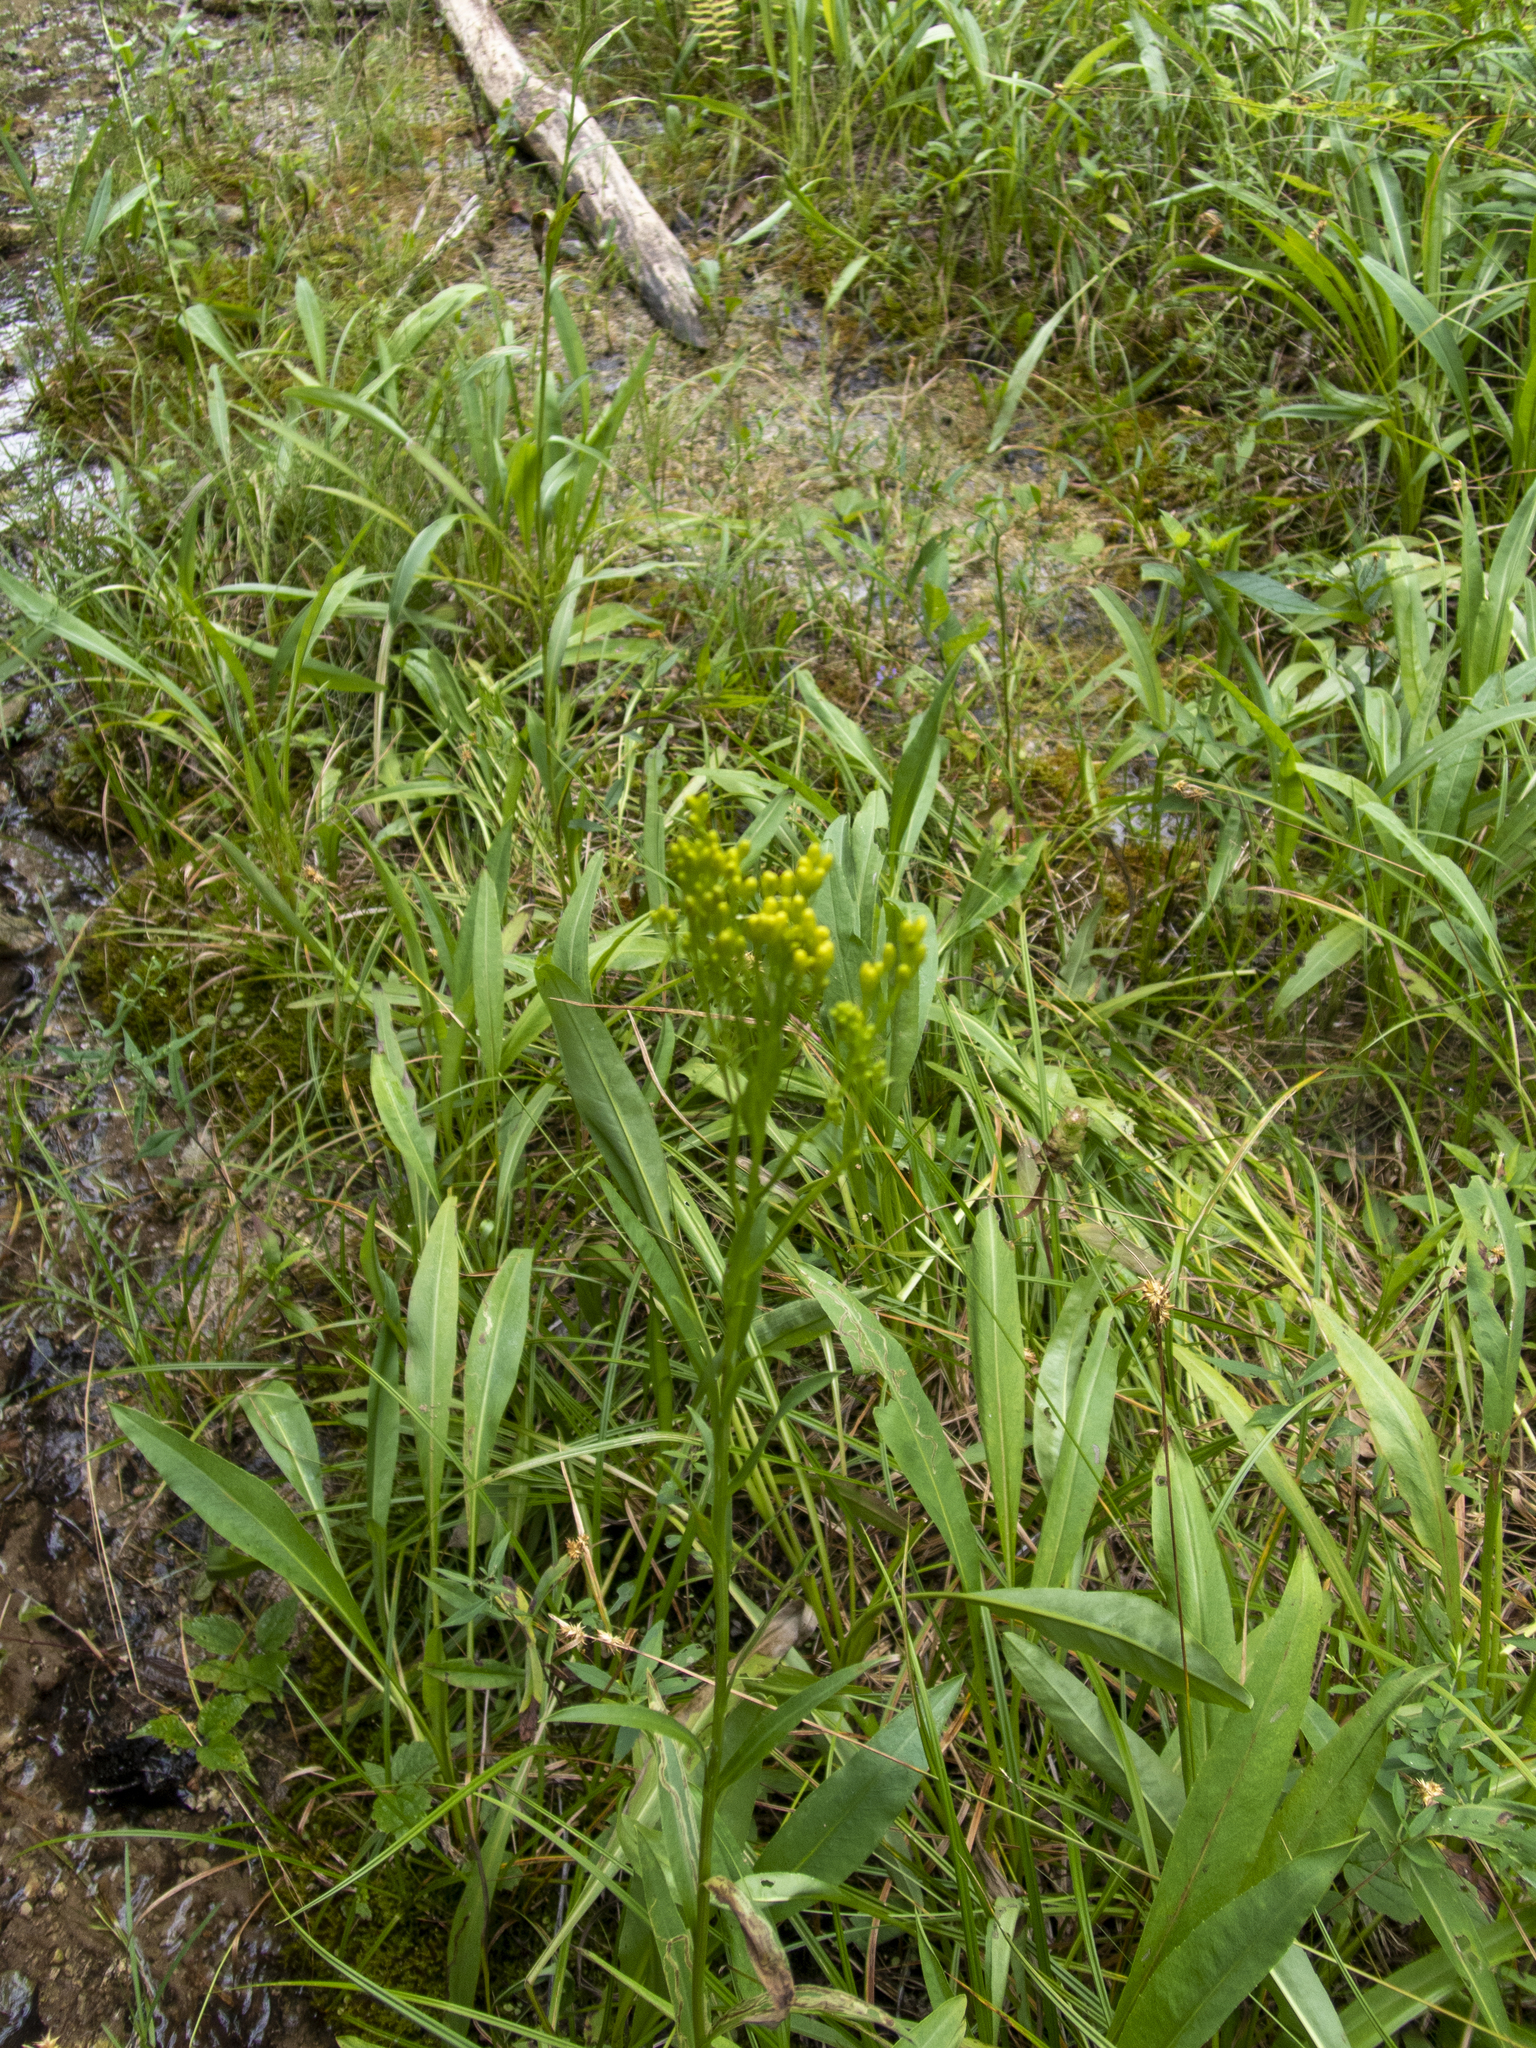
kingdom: Plantae
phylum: Tracheophyta
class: Magnoliopsida
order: Asterales
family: Asteraceae
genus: Solidago
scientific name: Solidago ohioensis
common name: Ohio goldenrod
